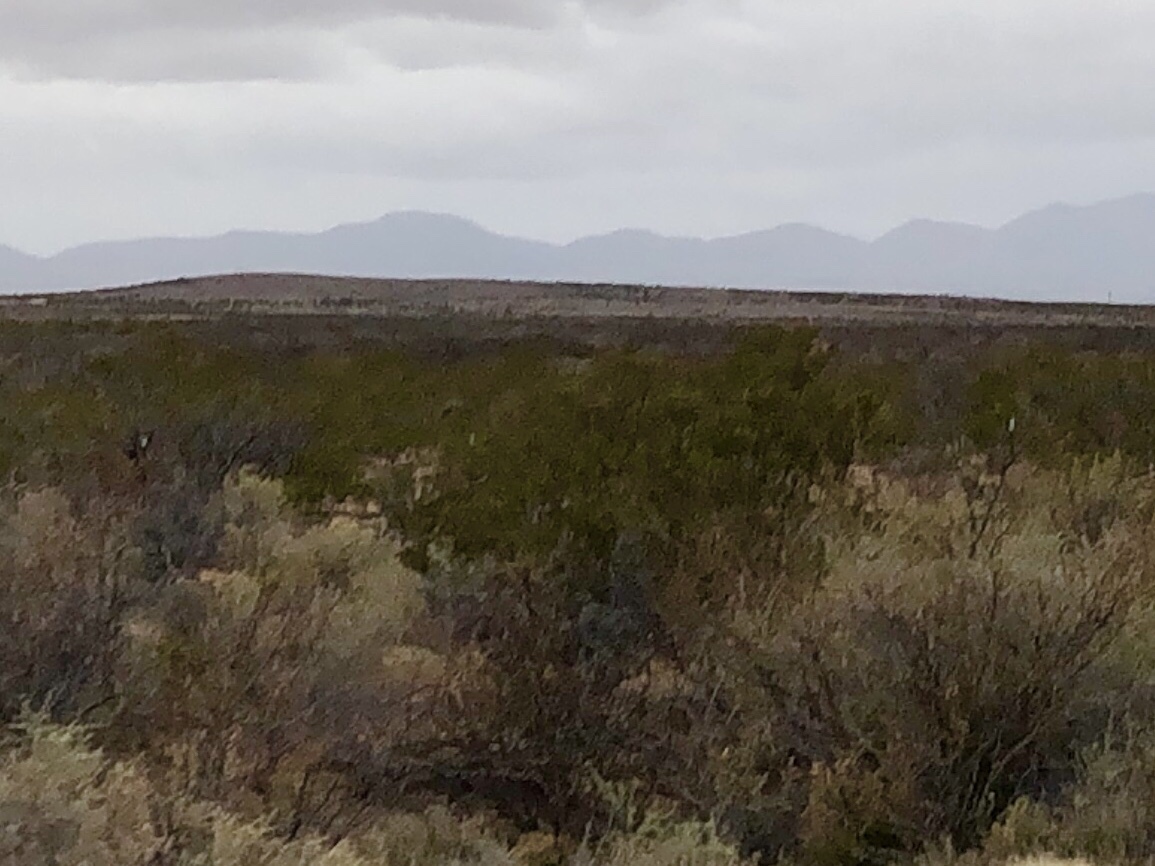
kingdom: Plantae
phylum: Tracheophyta
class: Magnoliopsida
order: Zygophyllales
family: Zygophyllaceae
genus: Larrea
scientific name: Larrea tridentata
